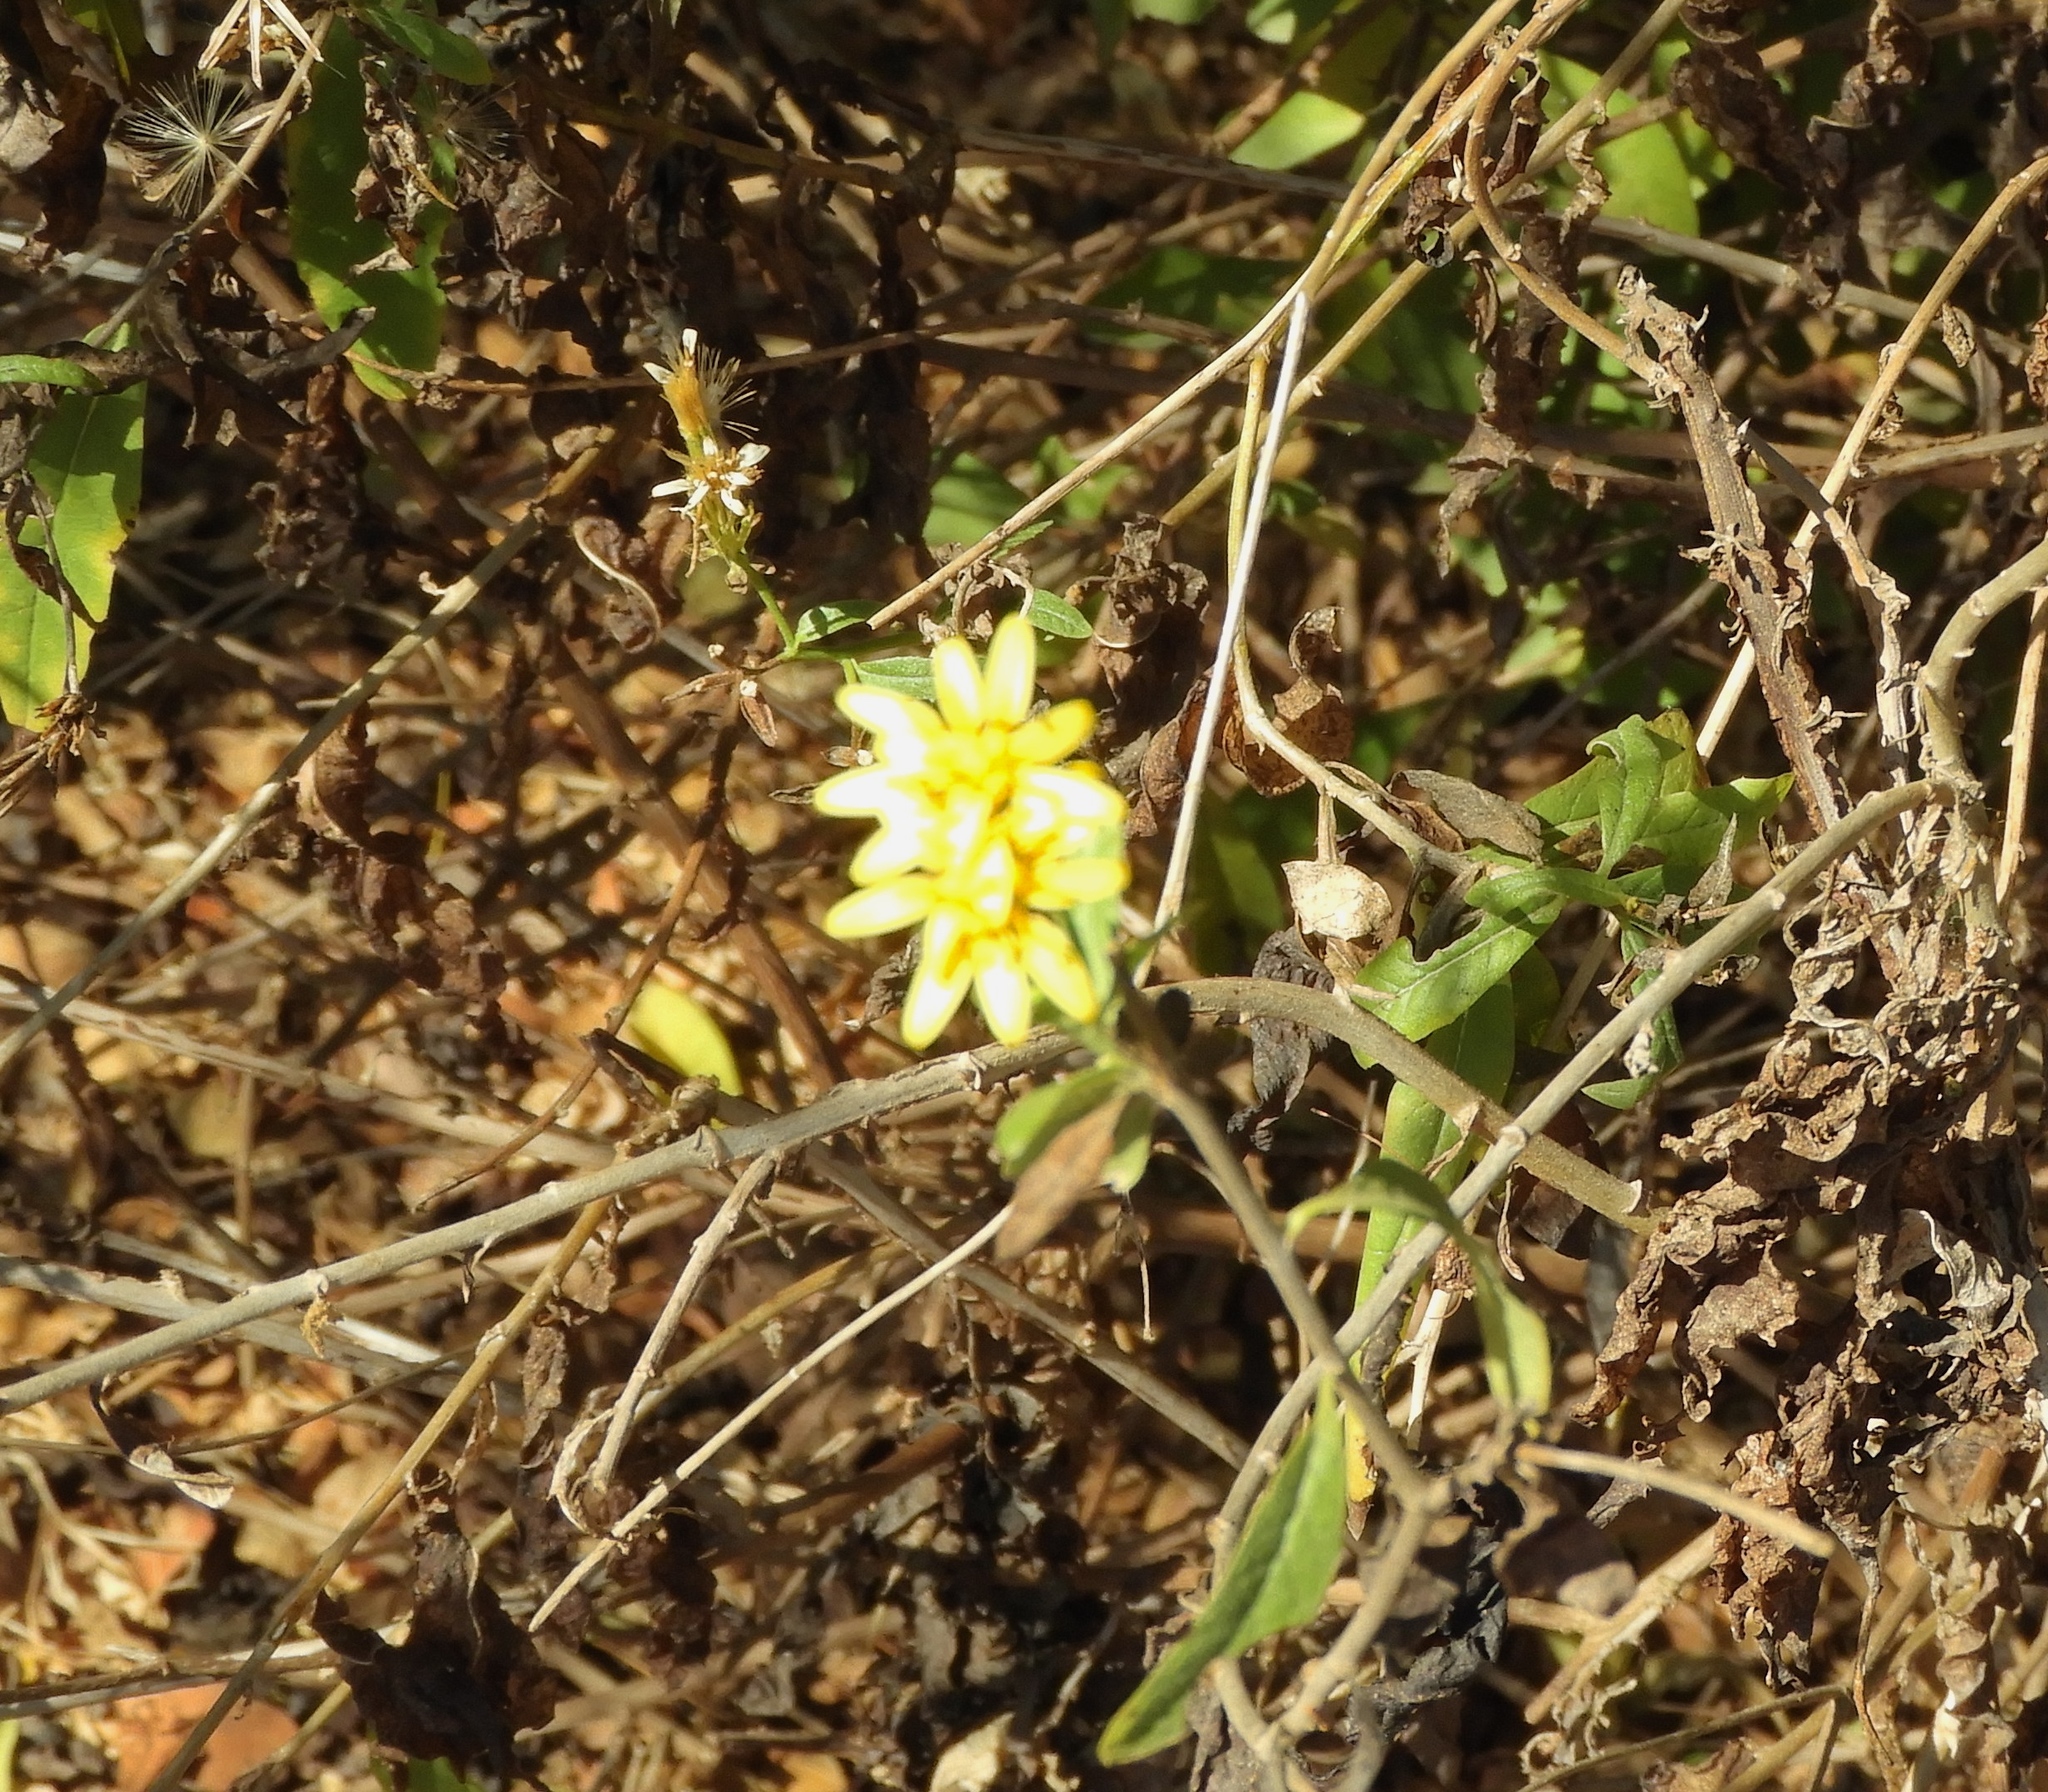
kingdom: Plantae
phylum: Tracheophyta
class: Magnoliopsida
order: Asterales
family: Asteraceae
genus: Trixis
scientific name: Trixis pterocaulis
